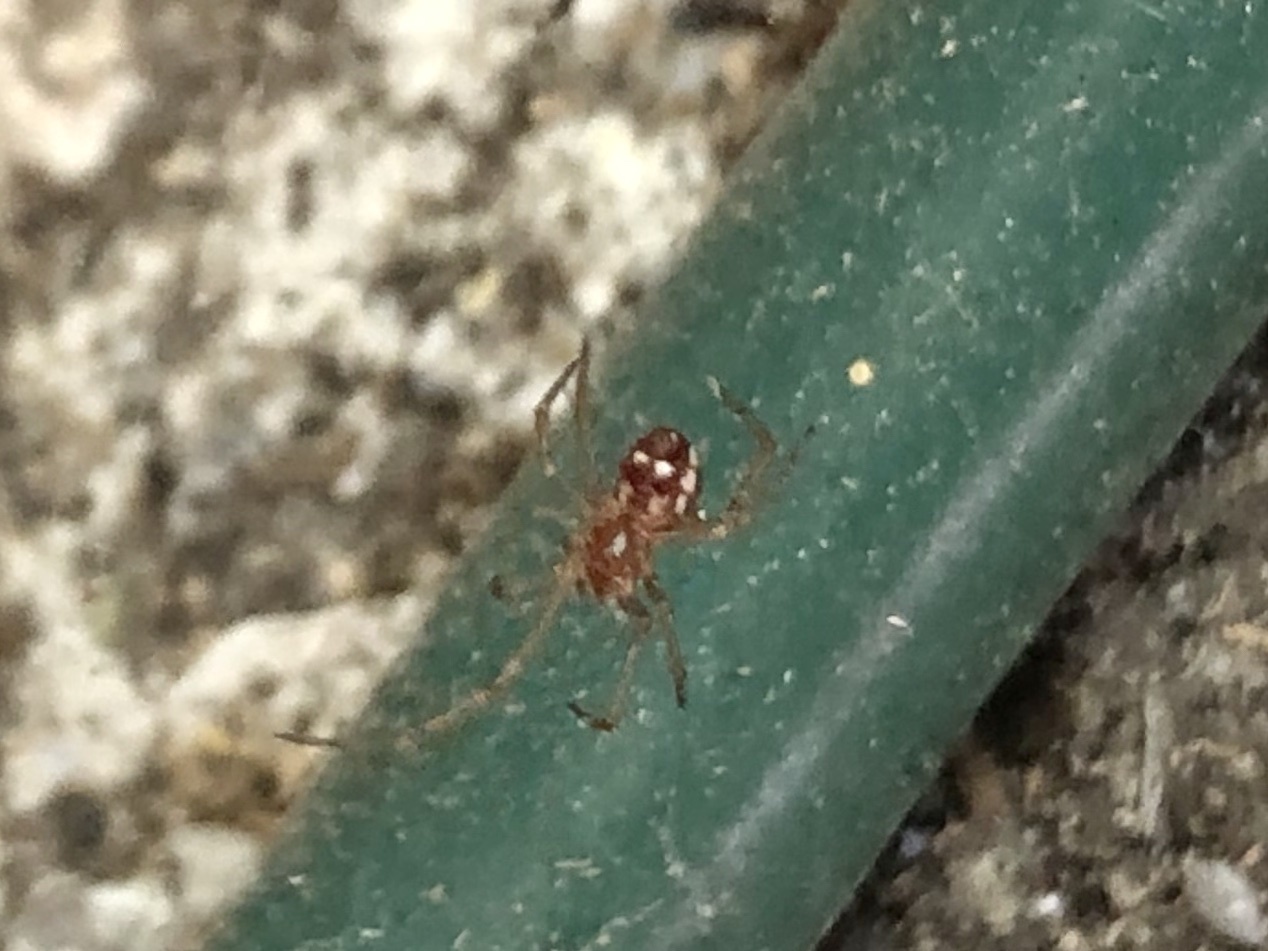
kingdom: Animalia
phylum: Arthropoda
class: Arachnida
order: Araneae
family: Theridiidae
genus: Steatoda
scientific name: Steatoda triangulosa
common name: Triangulate bud spider
